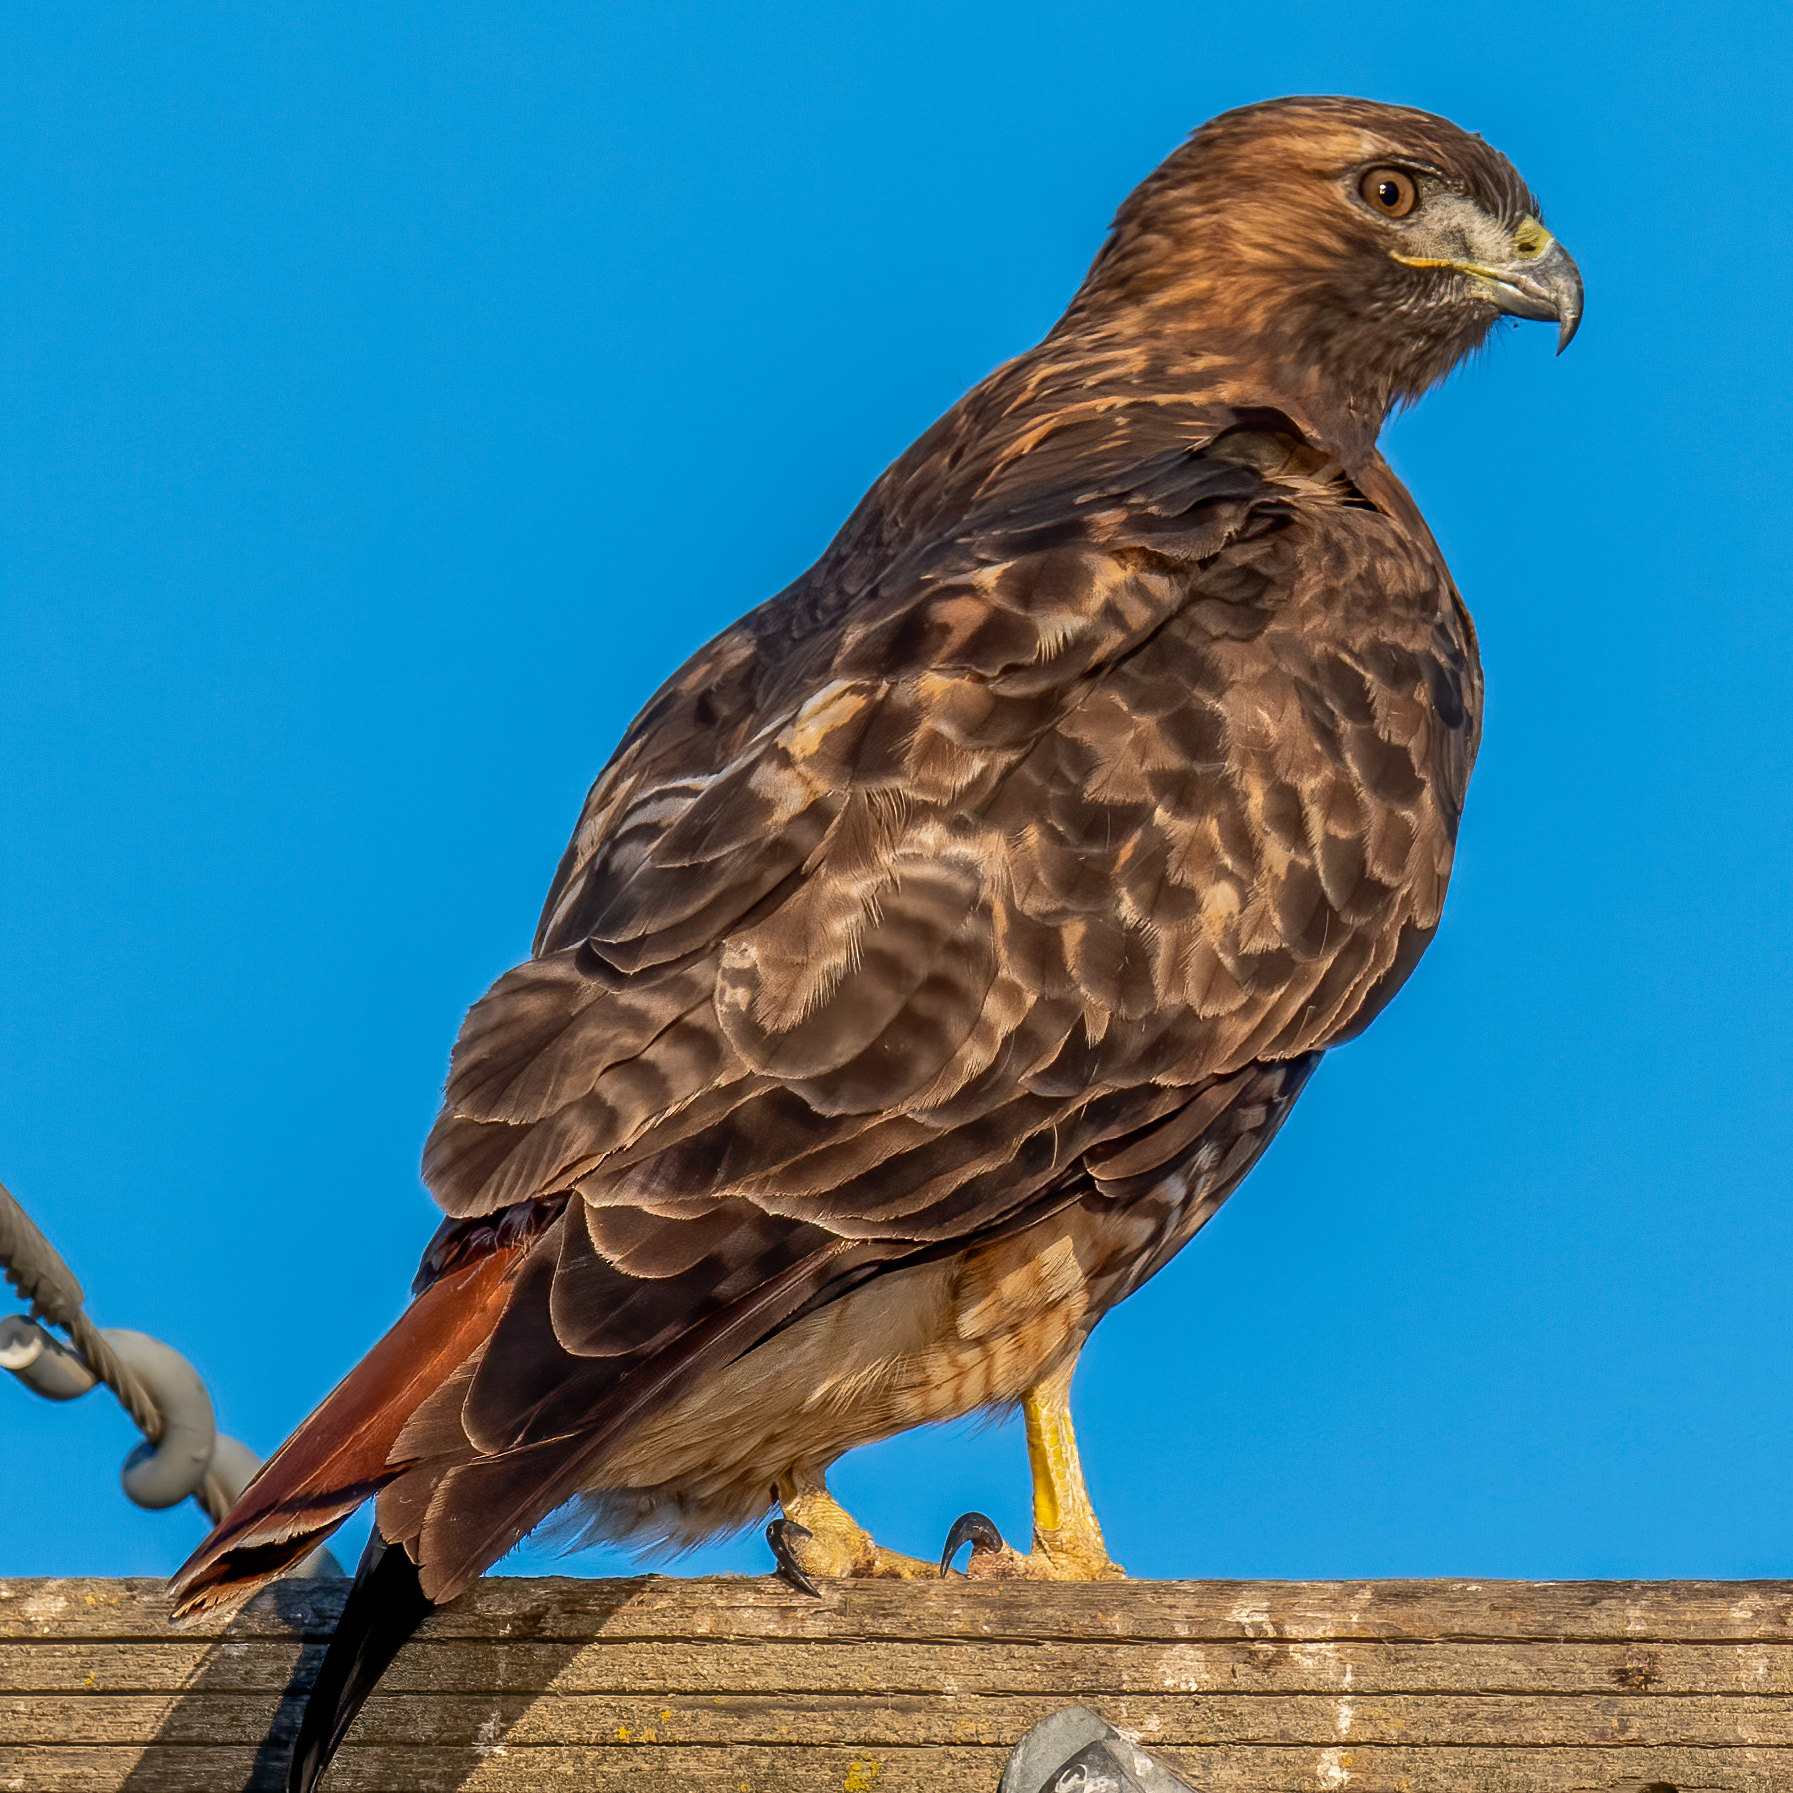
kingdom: Animalia
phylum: Chordata
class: Aves
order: Accipitriformes
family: Accipitridae
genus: Buteo
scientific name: Buteo jamaicensis
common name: Red-tailed hawk
